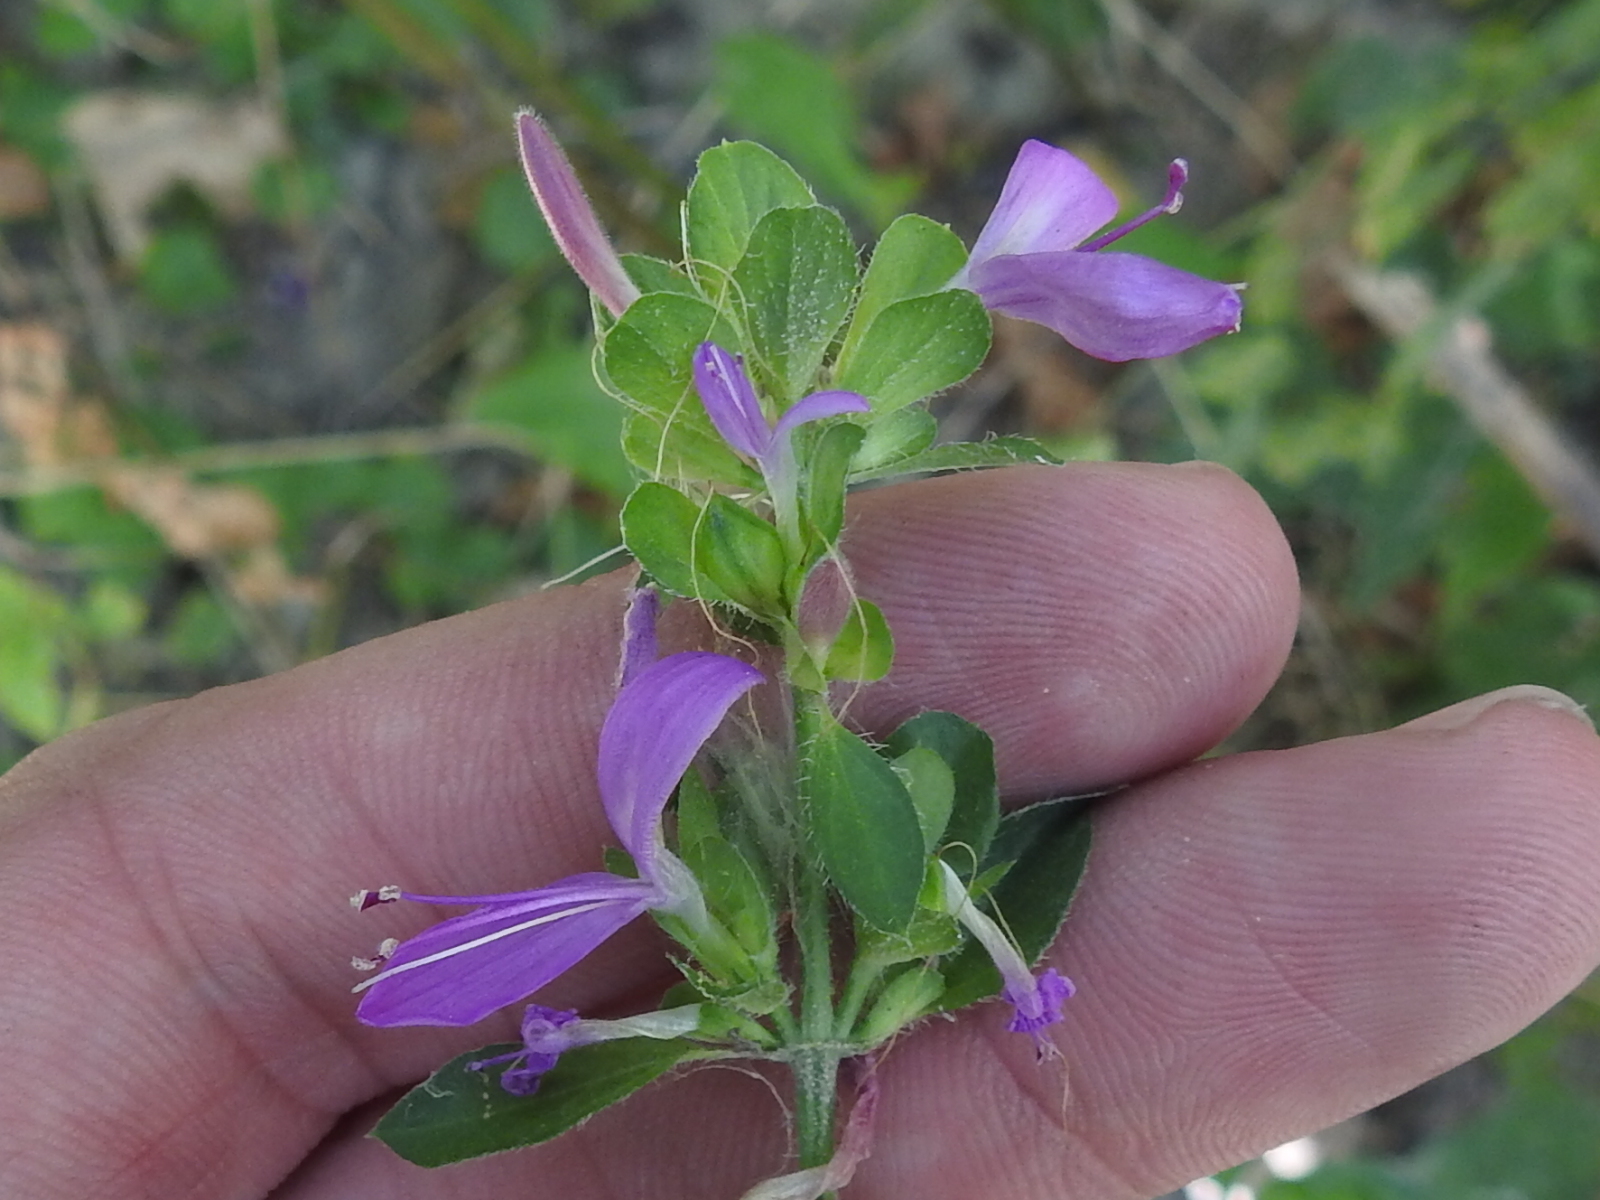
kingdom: Plantae
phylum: Tracheophyta
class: Magnoliopsida
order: Lamiales
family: Acanthaceae
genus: Dicliptera
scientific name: Dicliptera brachiata
